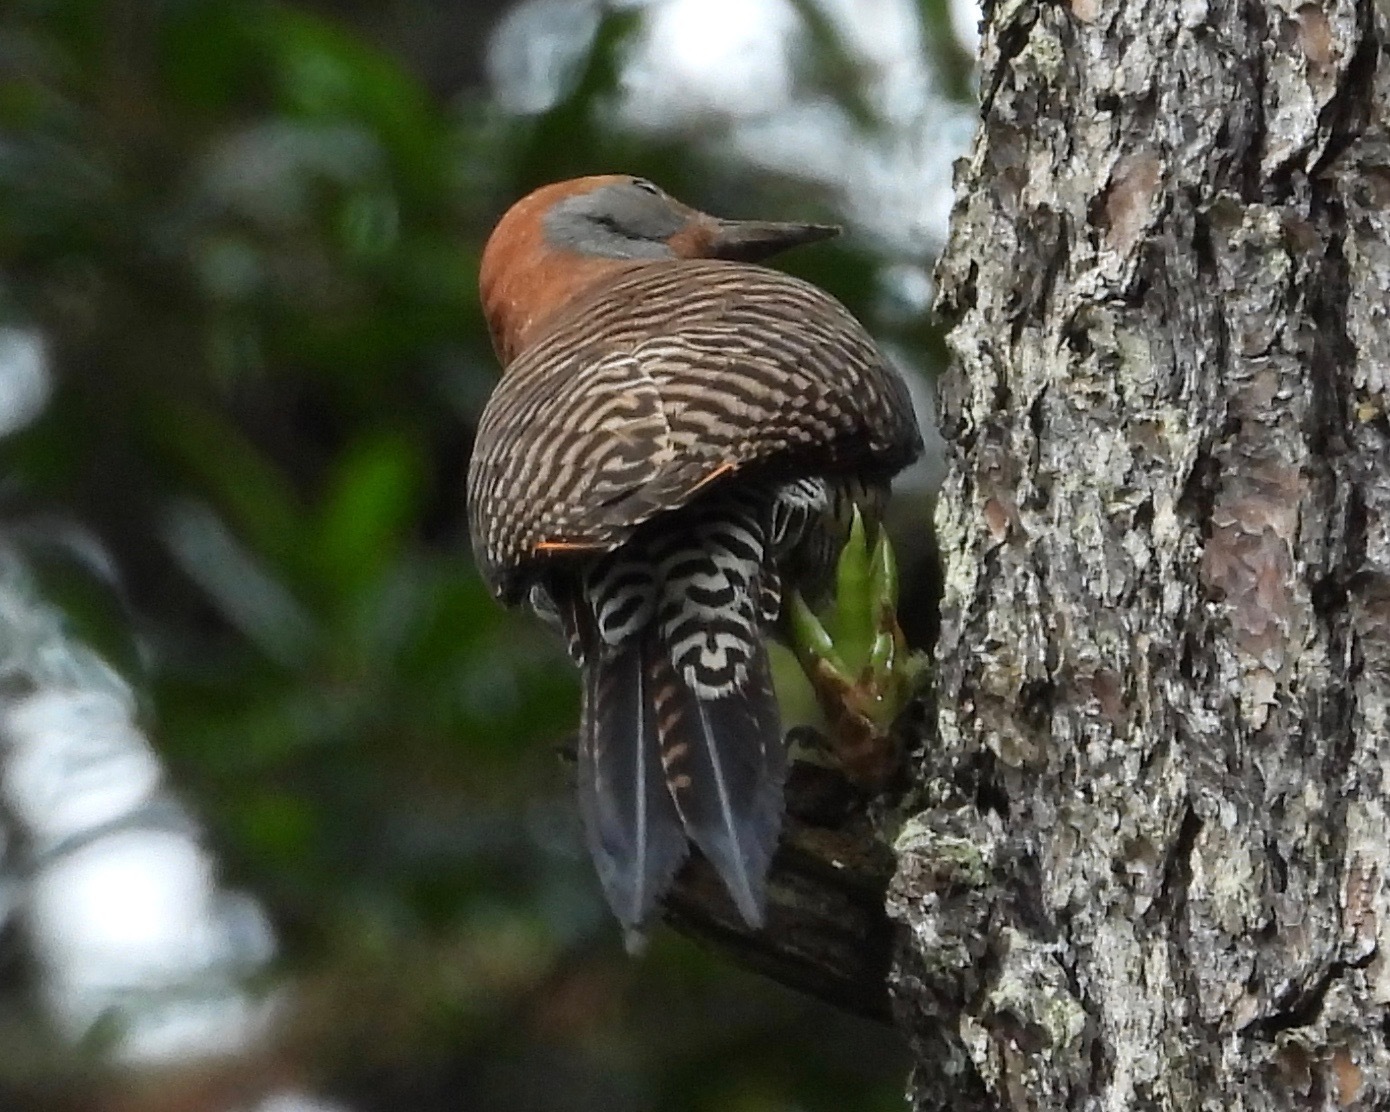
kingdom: Animalia
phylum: Chordata
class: Aves
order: Piciformes
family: Picidae
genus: Colaptes
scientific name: Colaptes auratus
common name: Northern flicker
